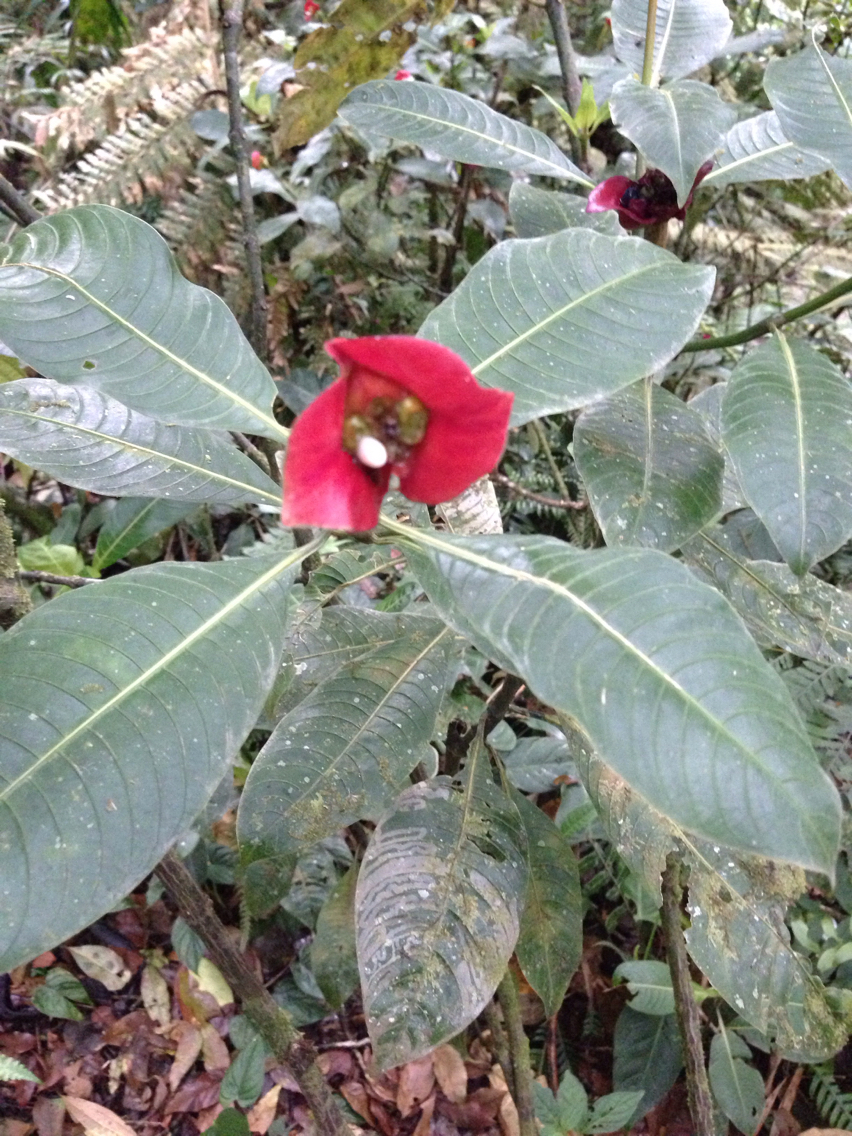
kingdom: Plantae
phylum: Tracheophyta
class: Magnoliopsida
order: Gentianales
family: Rubiaceae
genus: Palicourea
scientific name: Palicourea elata
